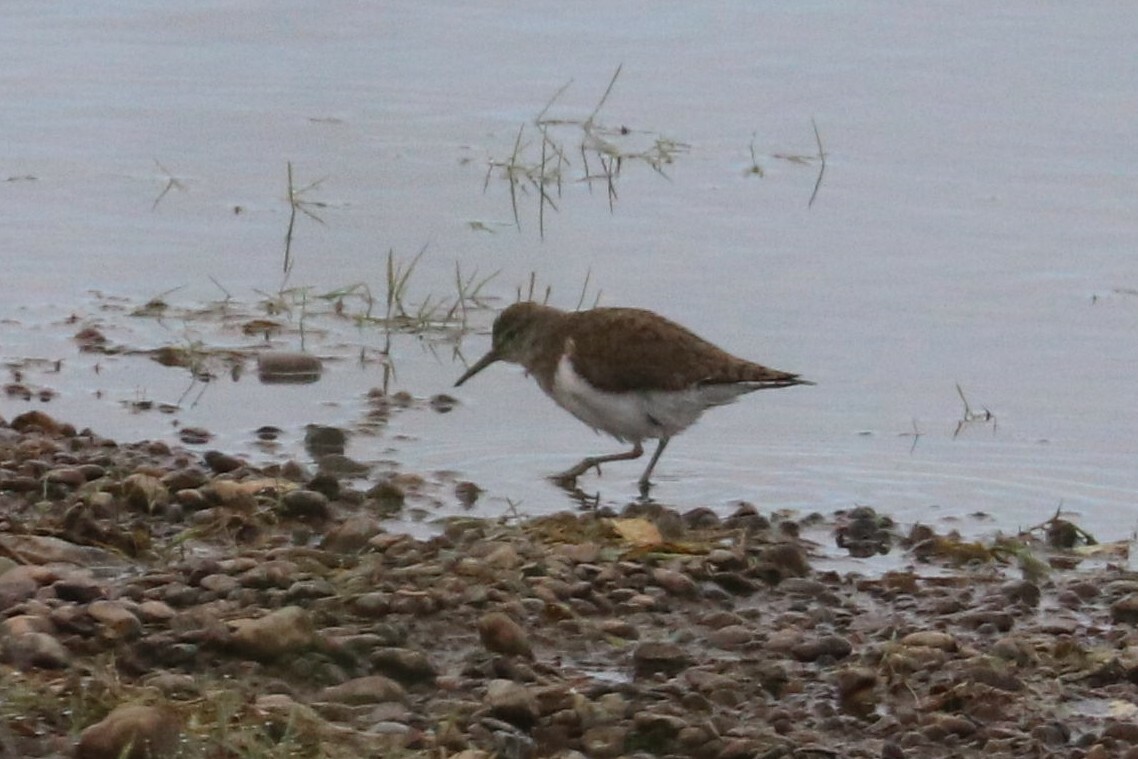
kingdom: Animalia
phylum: Chordata
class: Aves
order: Charadriiformes
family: Scolopacidae
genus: Actitis
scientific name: Actitis hypoleucos
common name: Common sandpiper
